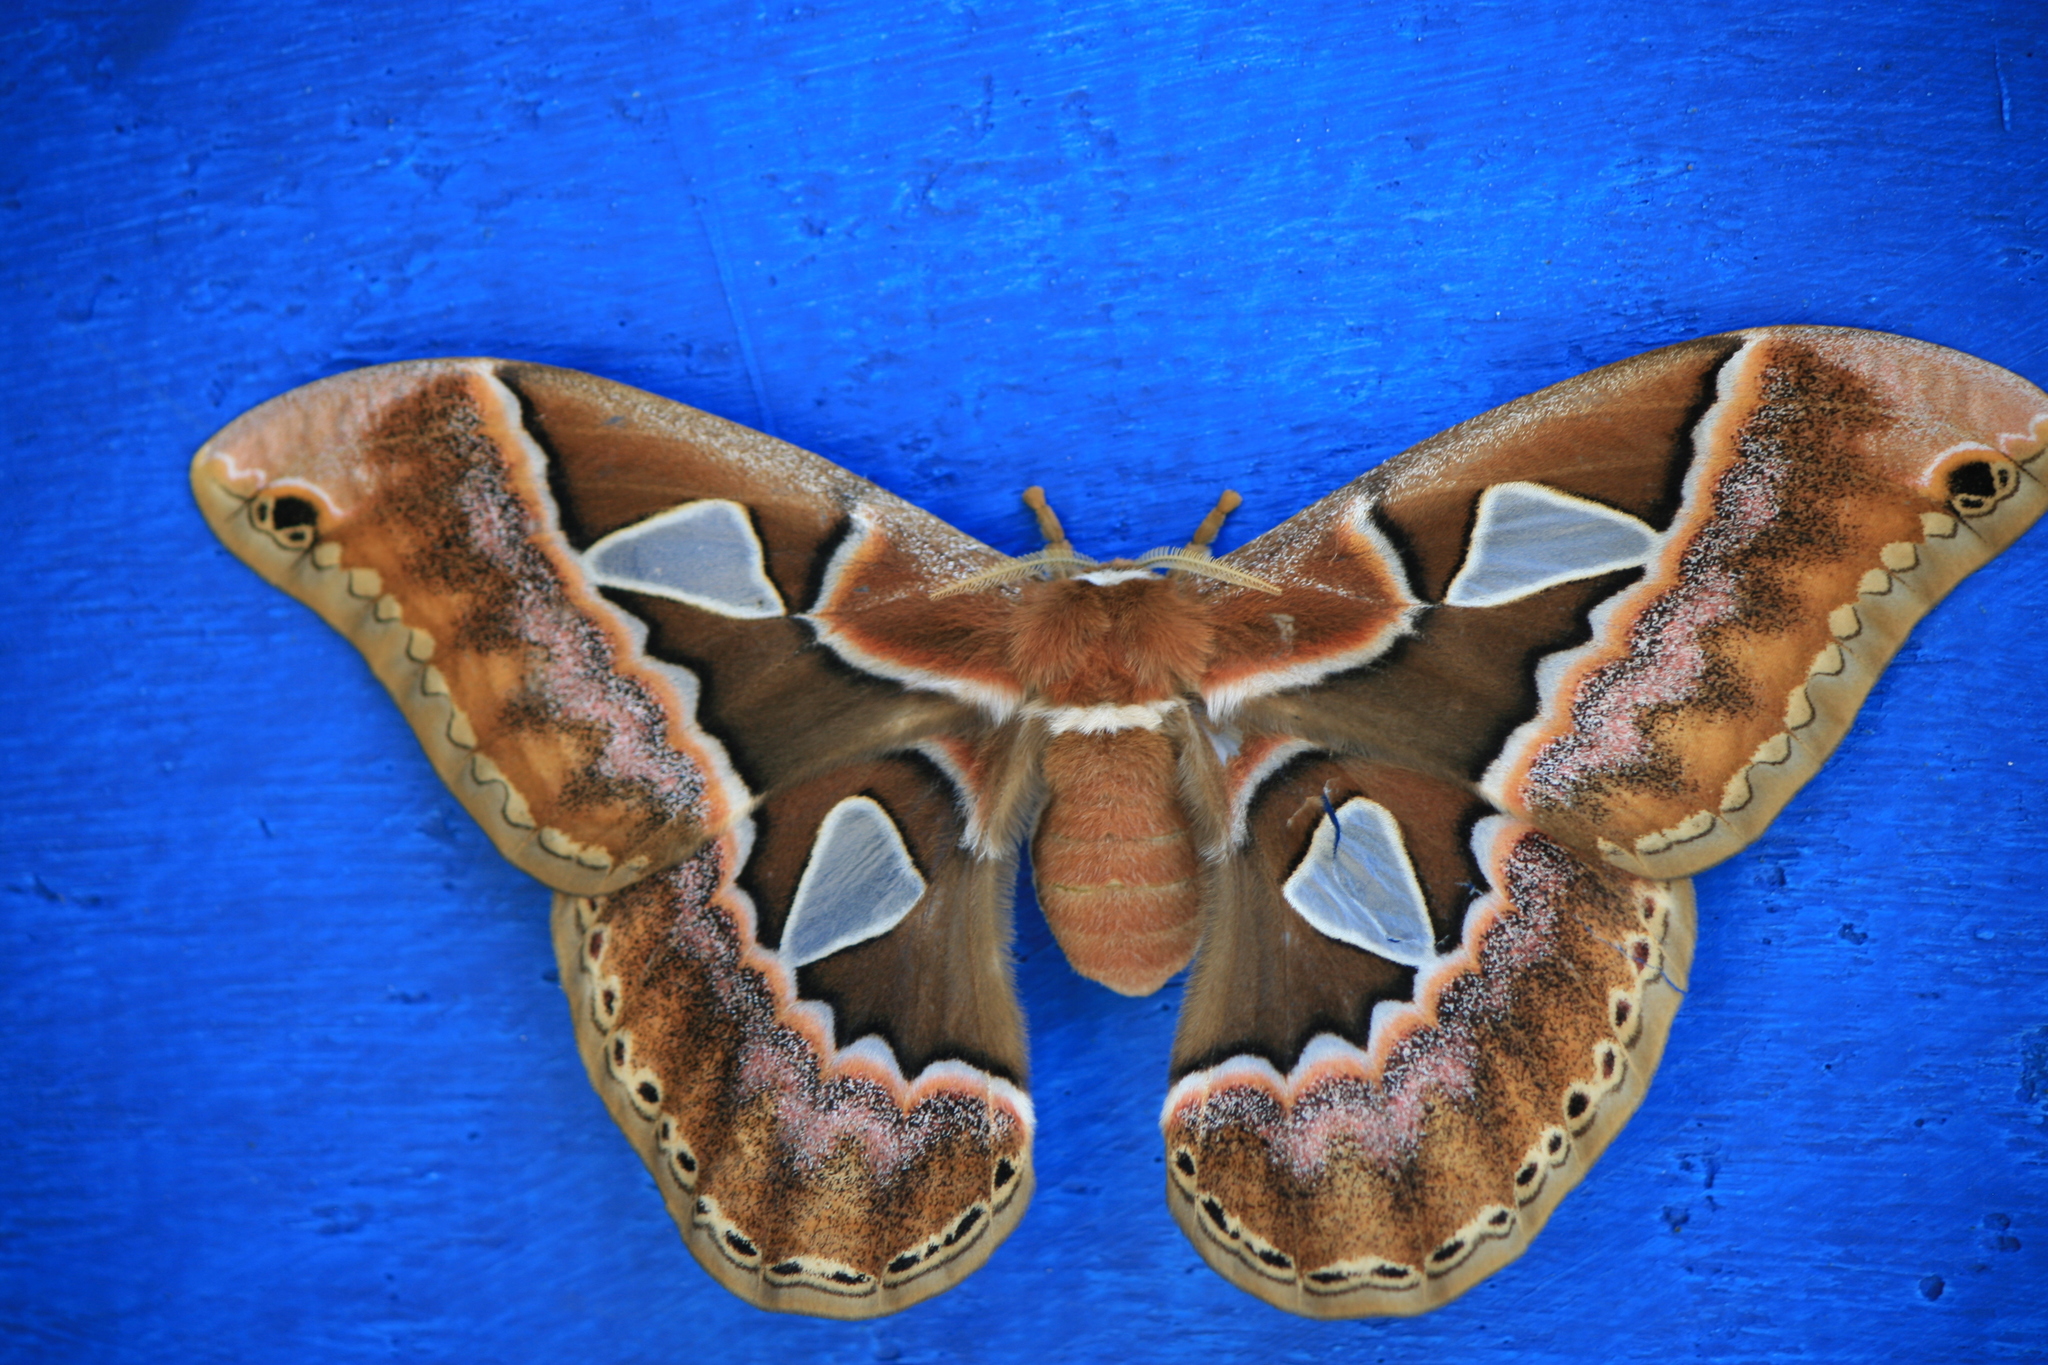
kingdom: Animalia
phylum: Arthropoda
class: Insecta
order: Lepidoptera
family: Saturniidae
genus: Rothschildia
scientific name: Rothschildia orizaba
